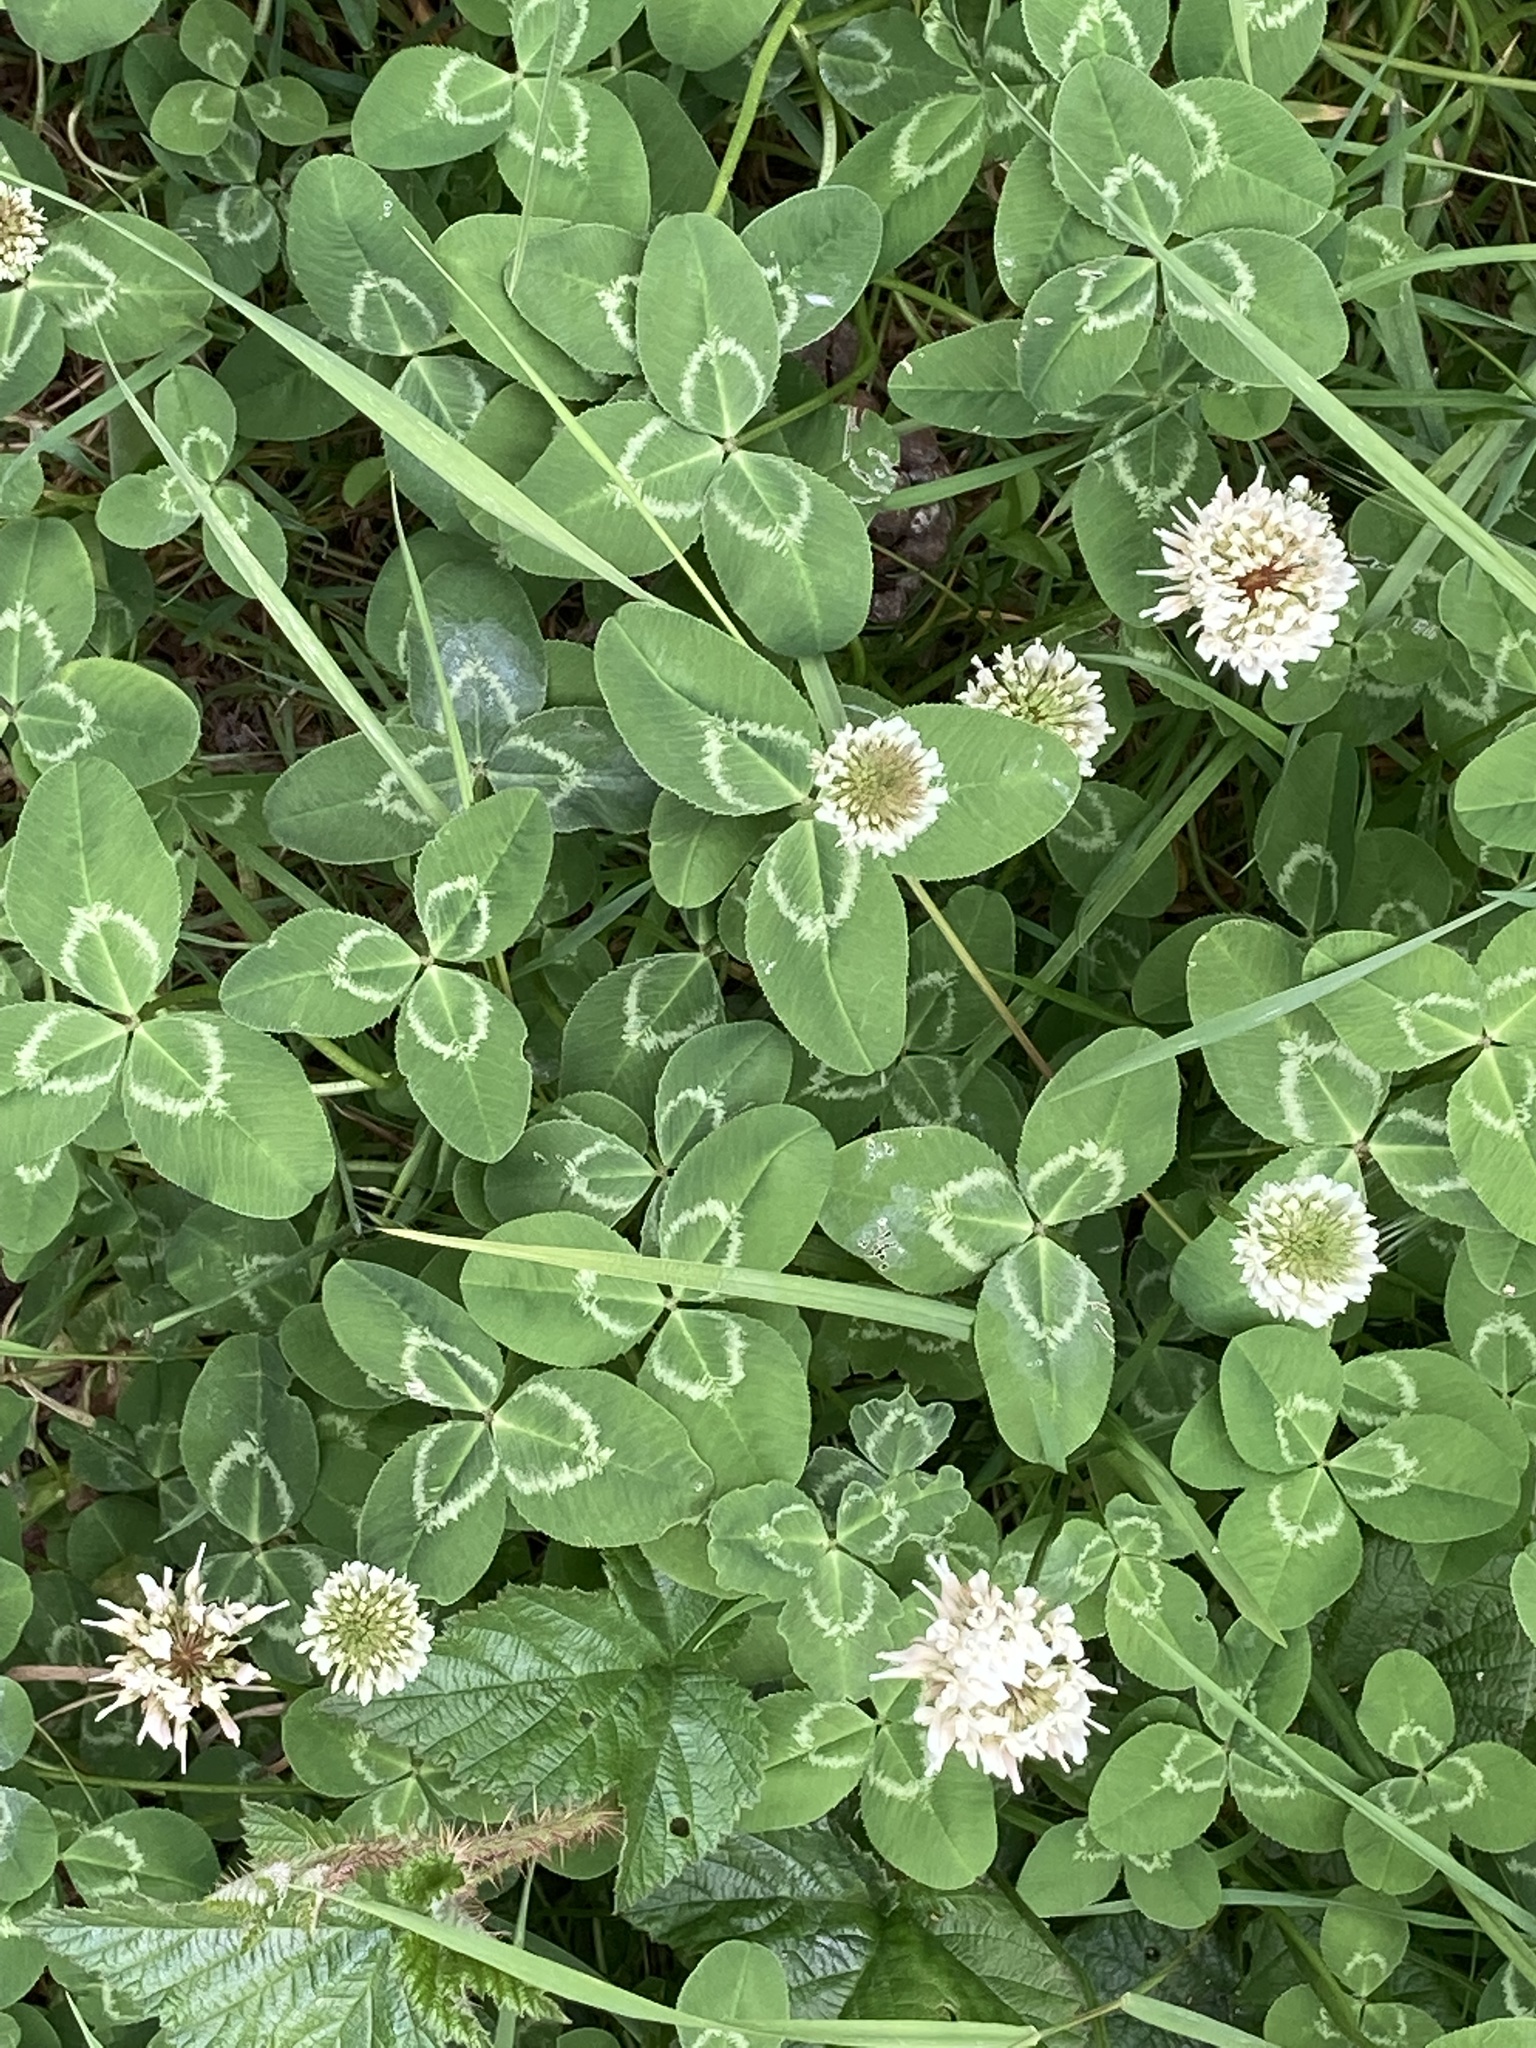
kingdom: Plantae
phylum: Tracheophyta
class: Magnoliopsida
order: Fabales
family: Fabaceae
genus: Trifolium
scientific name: Trifolium repens
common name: White clover
